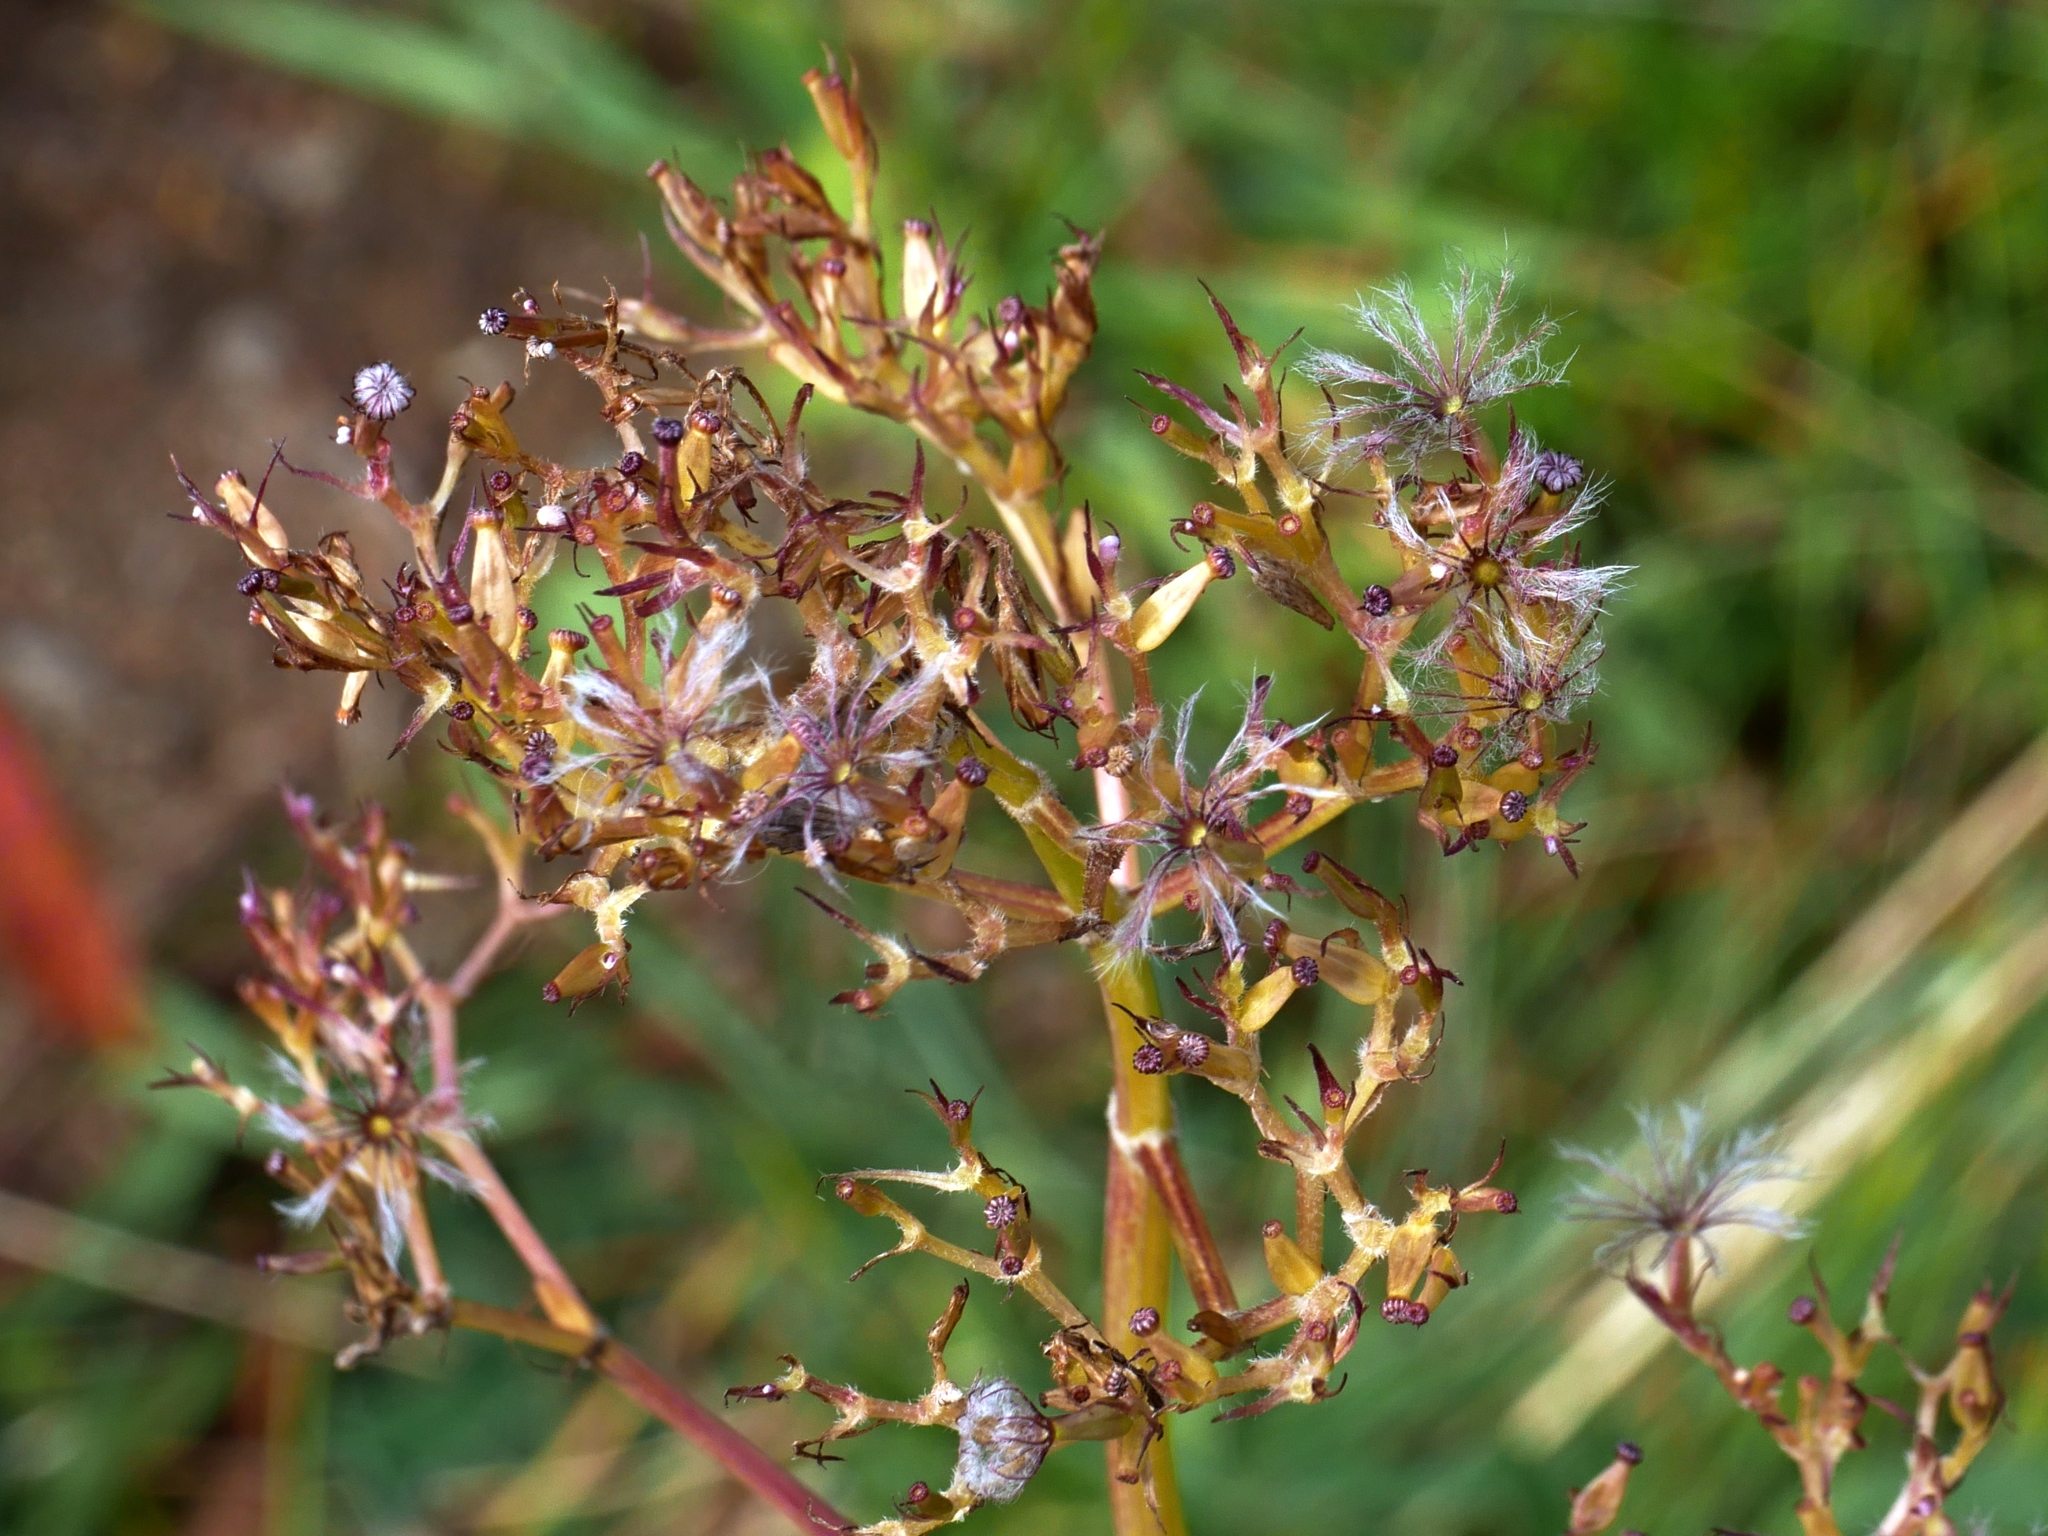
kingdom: Plantae
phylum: Tracheophyta
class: Magnoliopsida
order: Dipsacales
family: Caprifoliaceae
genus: Valeriana
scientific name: Valeriana sitchensis
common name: Pacific valerian
